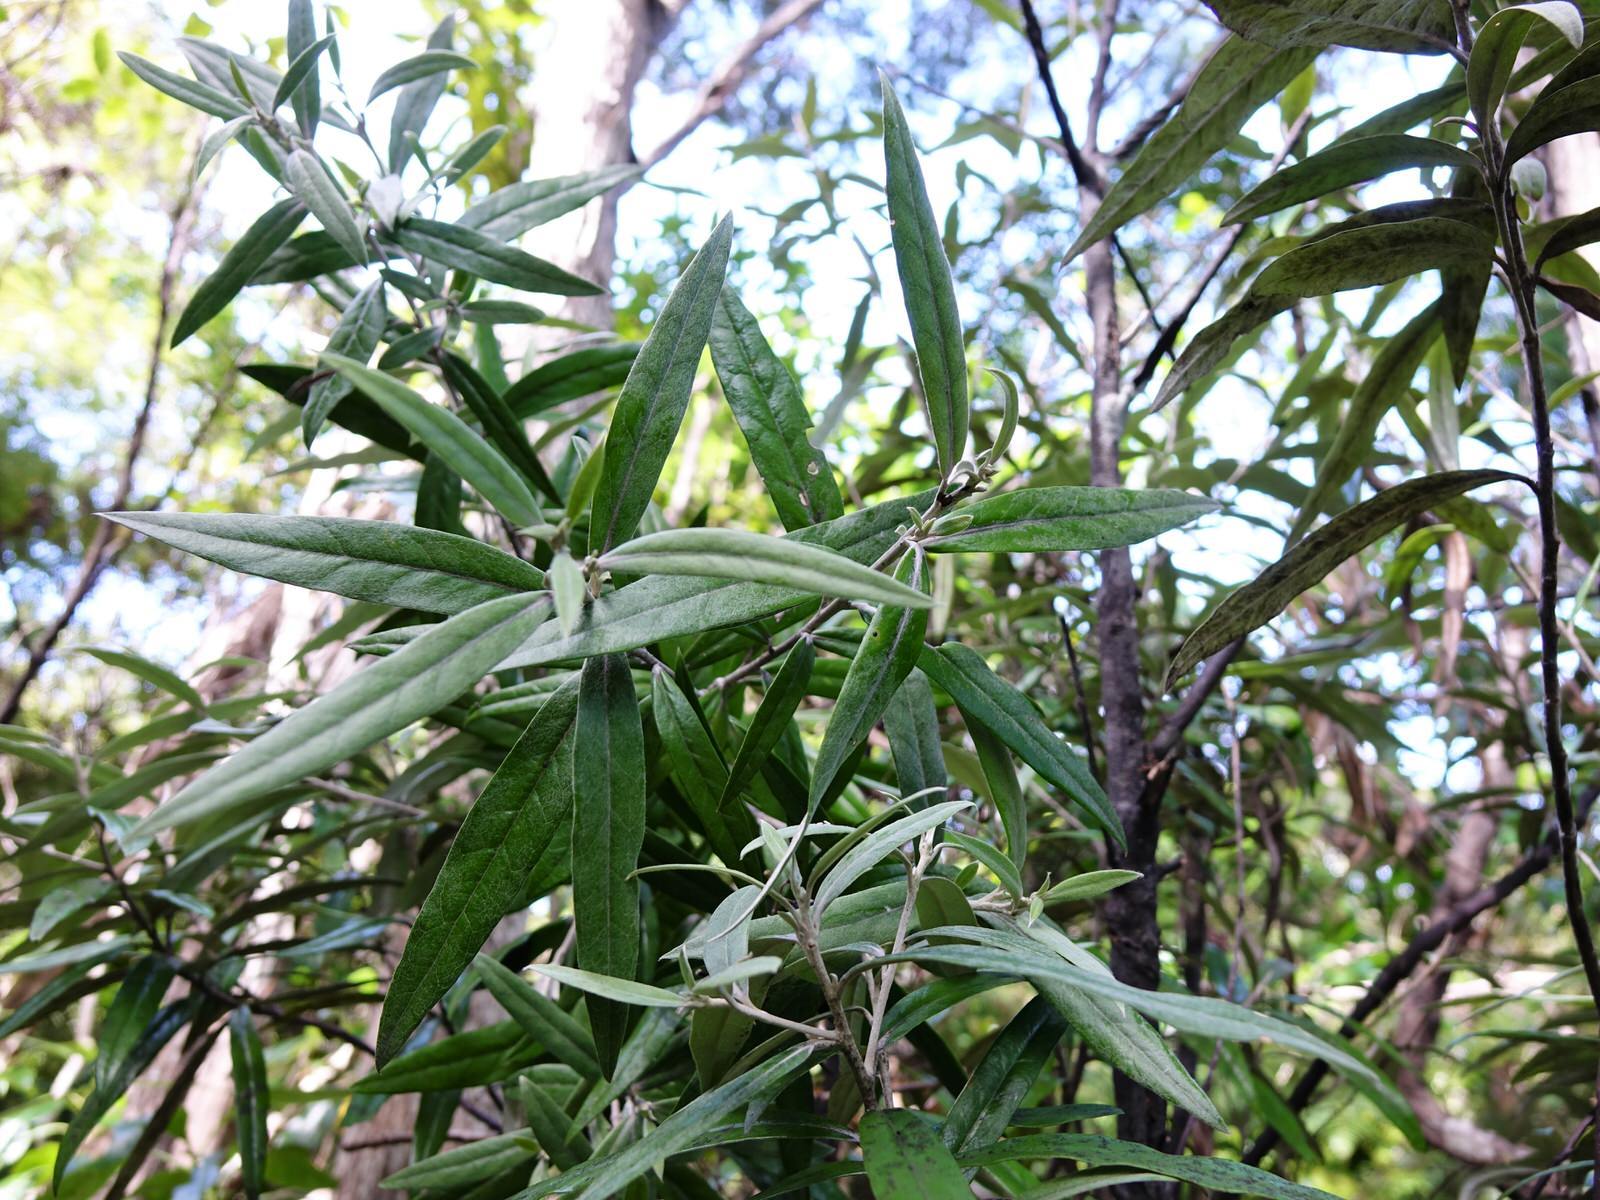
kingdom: Plantae
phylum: Tracheophyta
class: Magnoliopsida
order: Asterales
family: Argophyllaceae
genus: Corokia
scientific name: Corokia buddleioides
